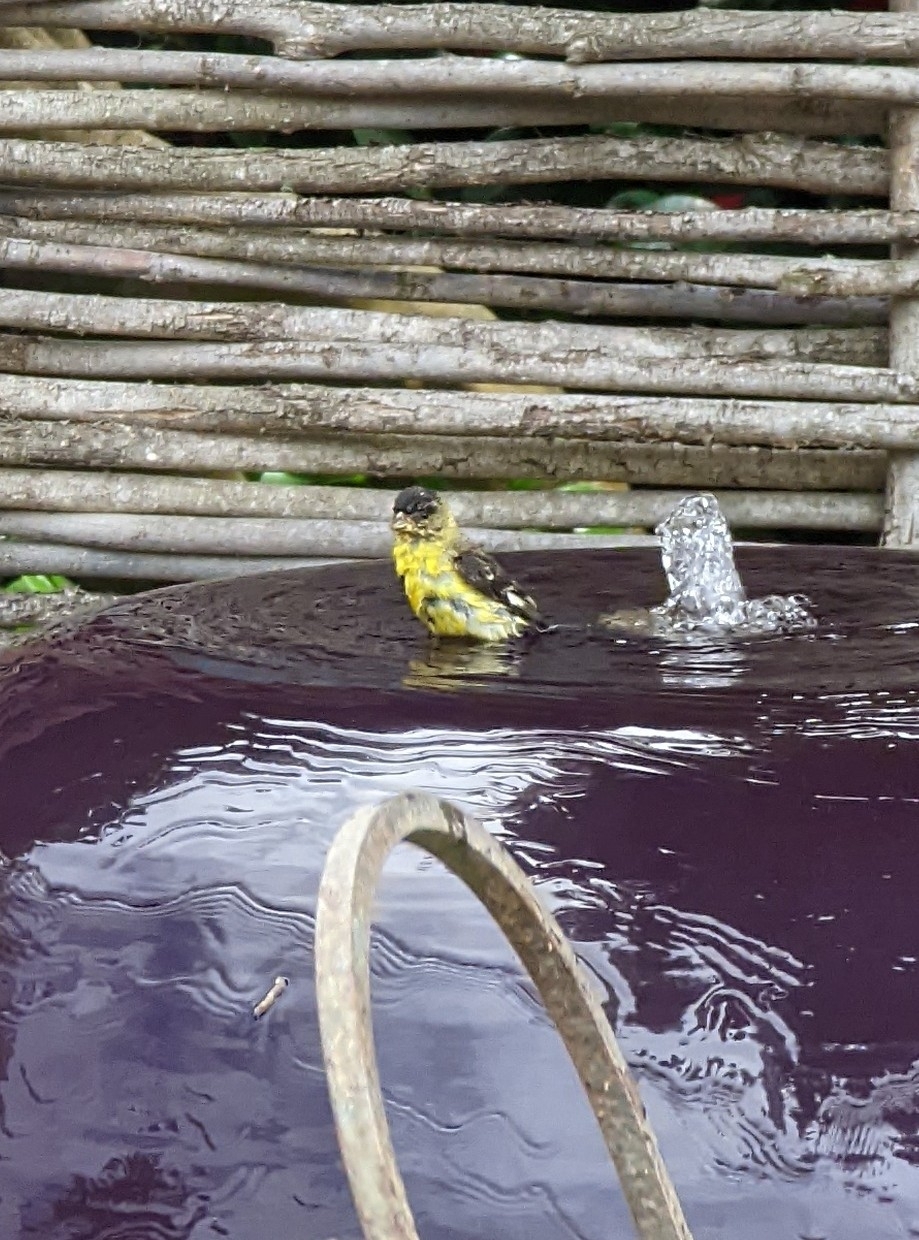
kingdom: Animalia
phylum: Chordata
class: Aves
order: Passeriformes
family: Fringillidae
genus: Spinus
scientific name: Spinus psaltria
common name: Lesser goldfinch
